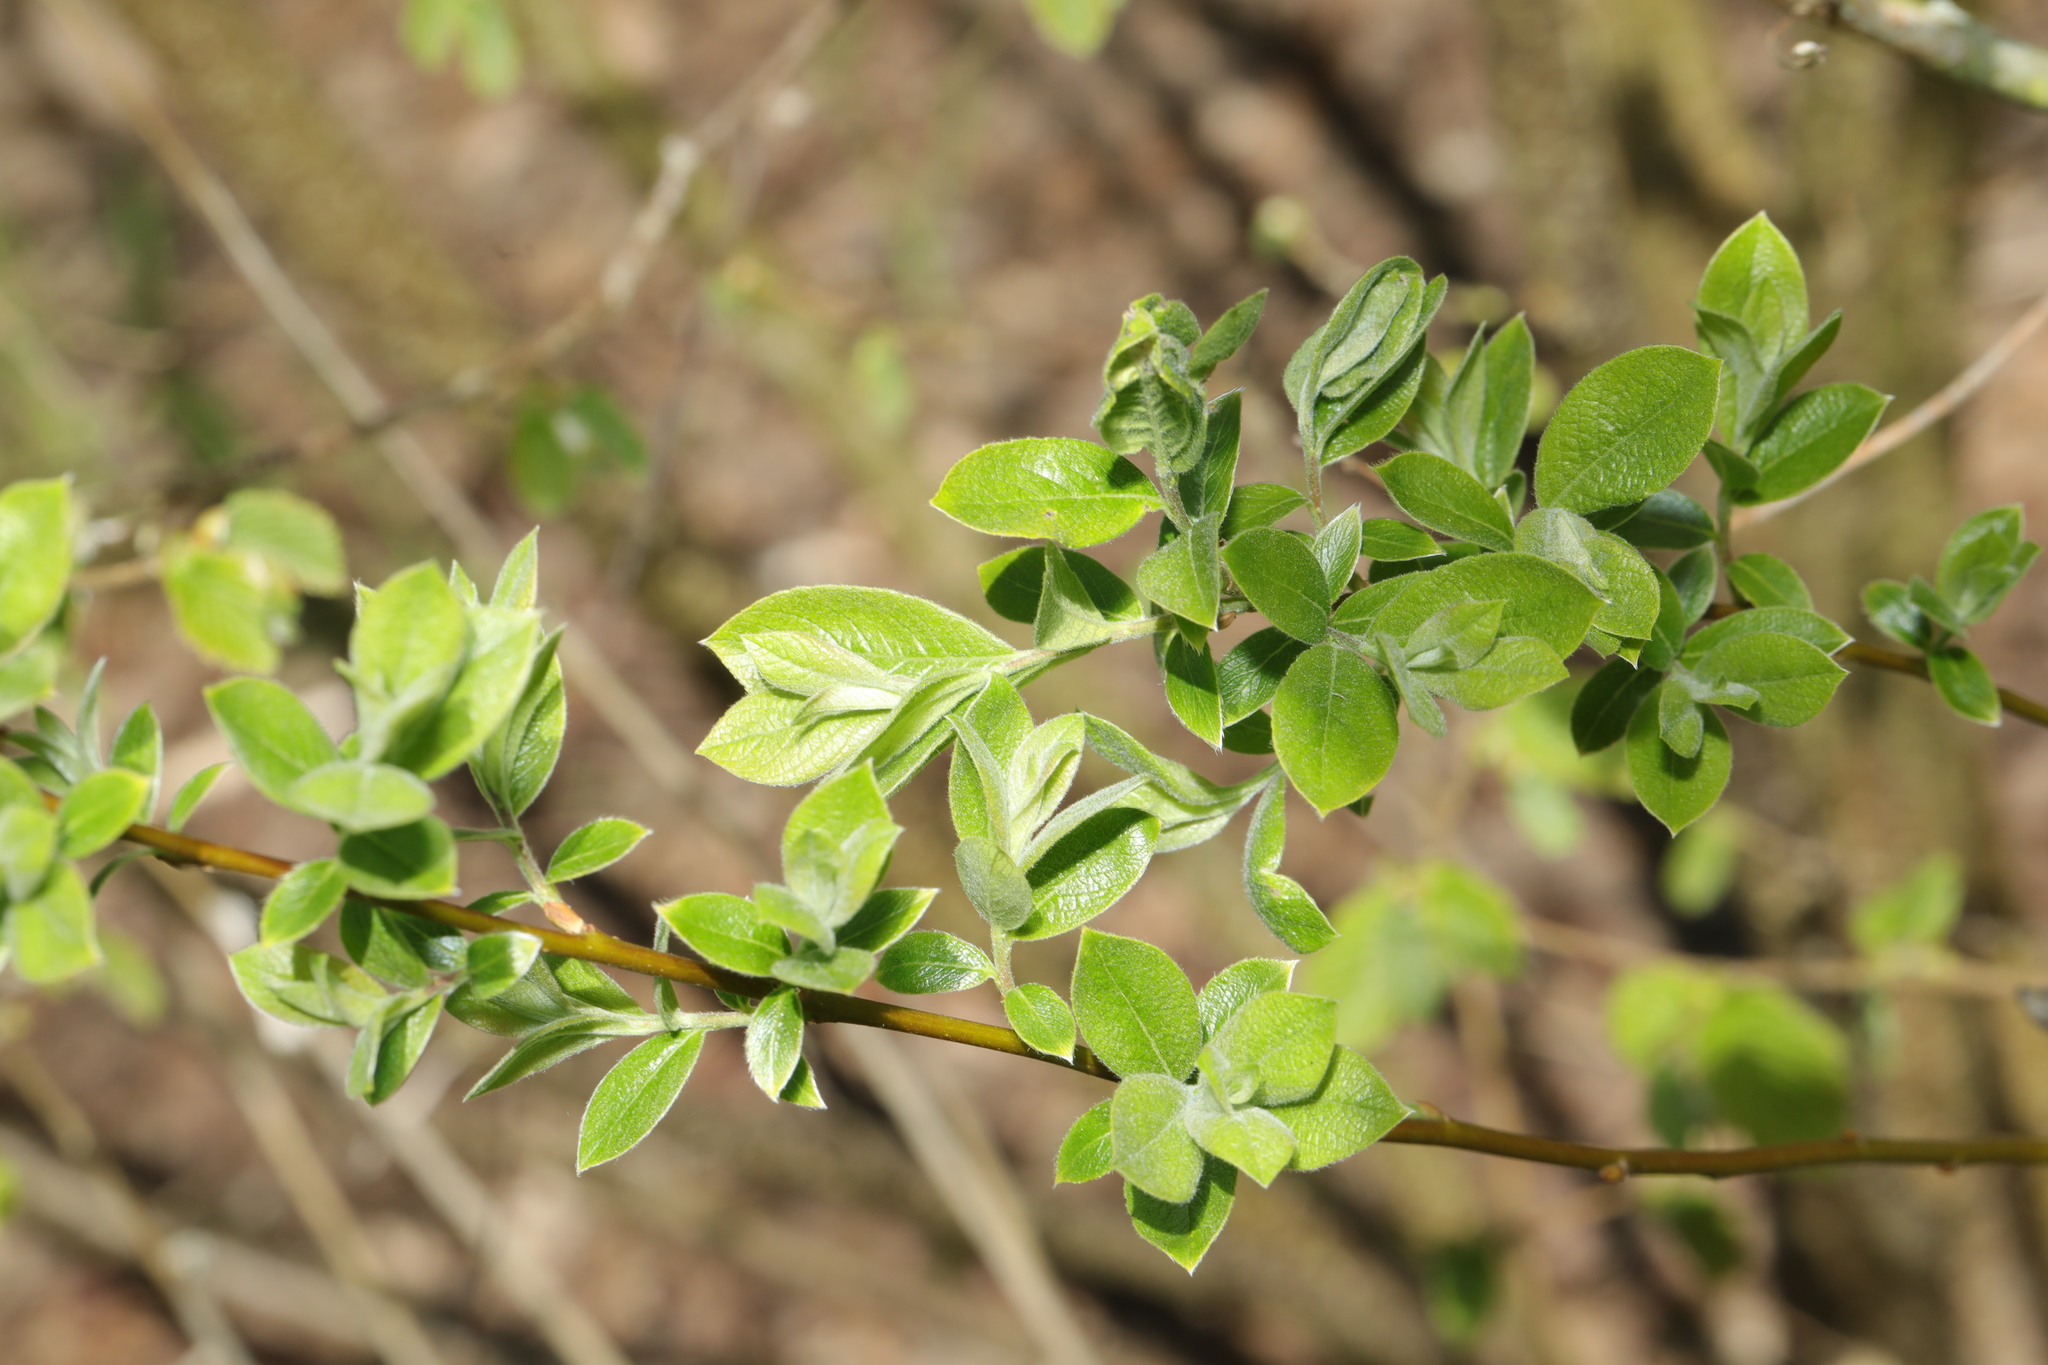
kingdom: Plantae
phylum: Tracheophyta
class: Magnoliopsida
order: Malpighiales
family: Salicaceae
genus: Salix
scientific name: Salix cinerea
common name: Common sallow
